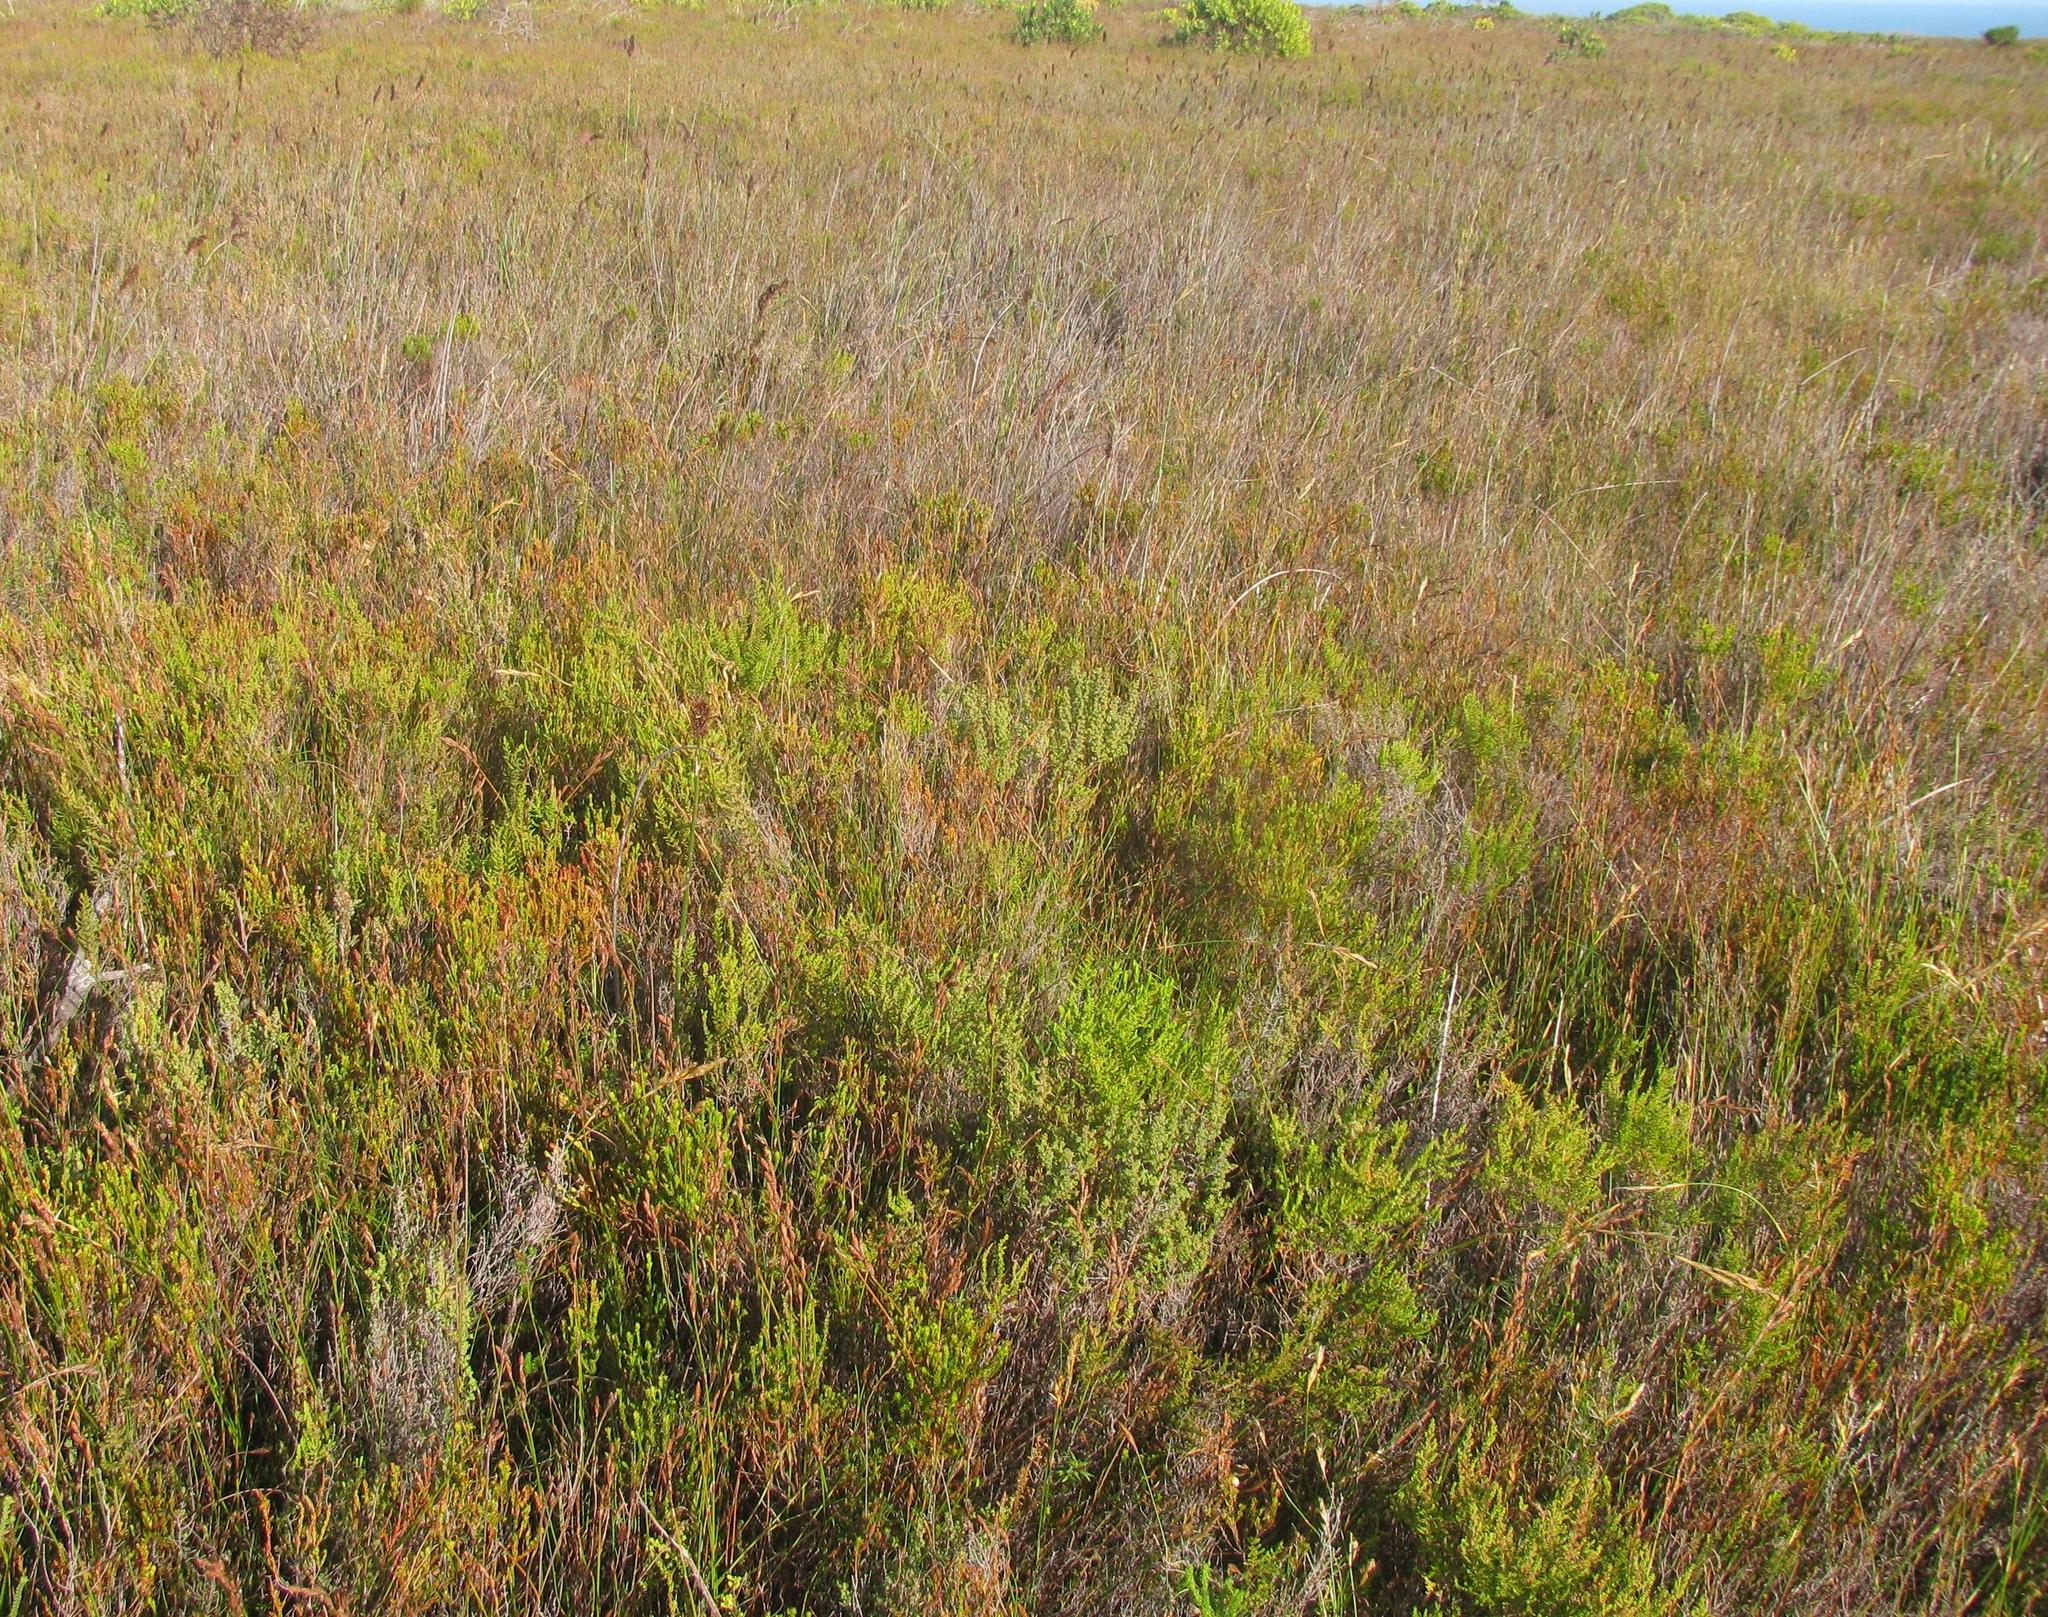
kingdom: Plantae
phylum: Tracheophyta
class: Liliopsida
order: Poales
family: Restionaceae
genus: Restio
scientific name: Restio dodii
